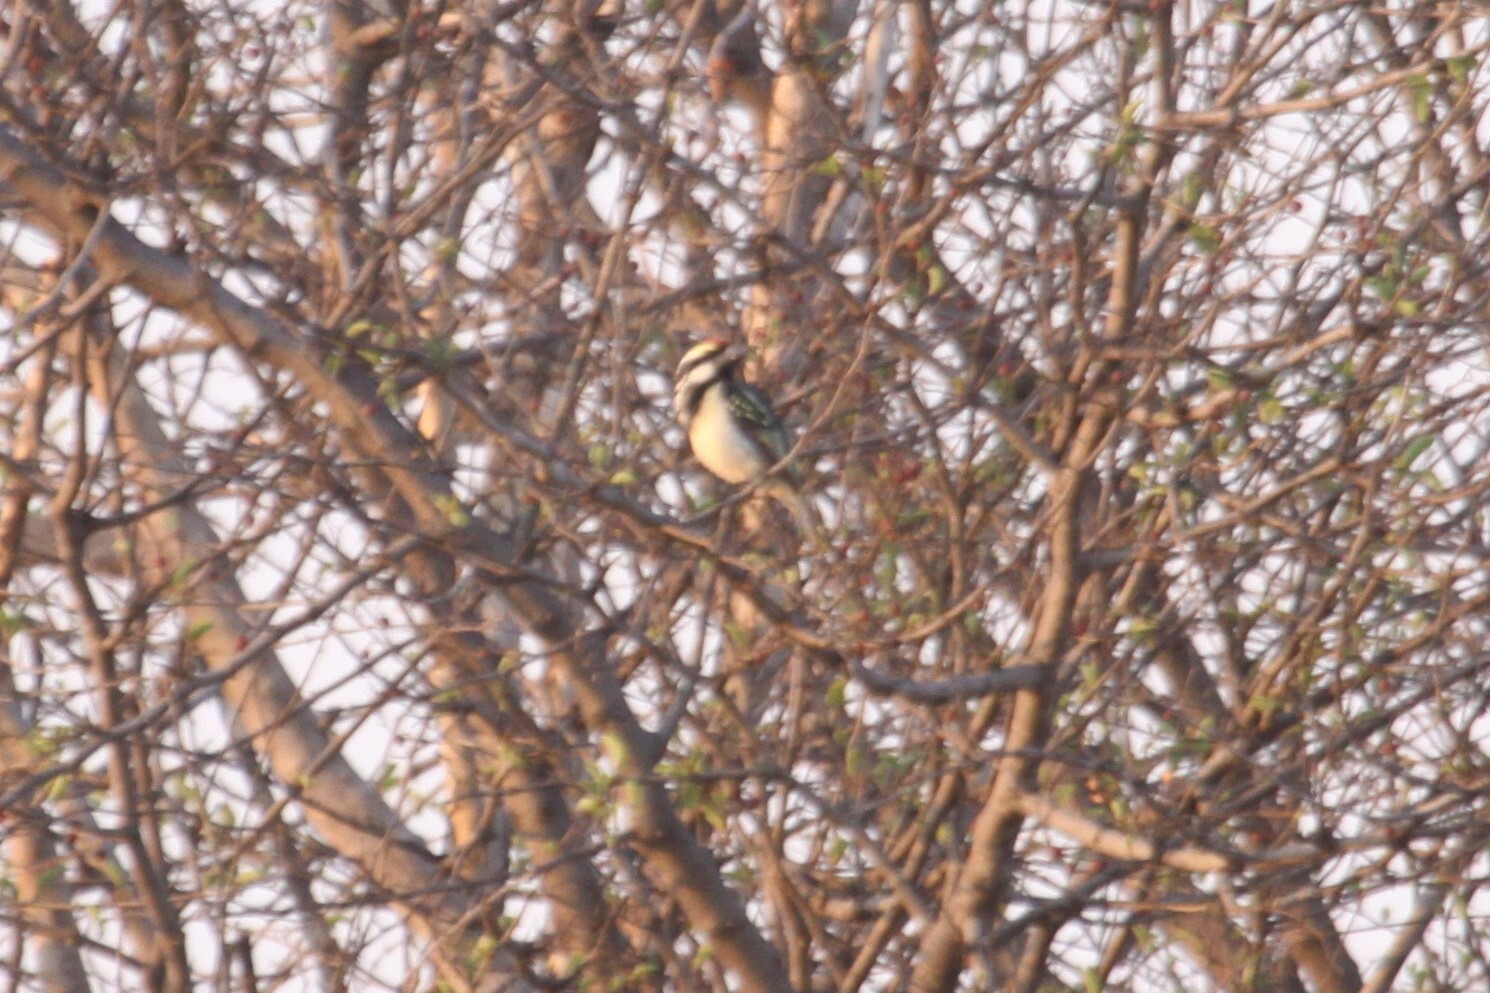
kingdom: Animalia
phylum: Chordata
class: Aves
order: Piciformes
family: Lybiidae
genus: Tricholaema
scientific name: Tricholaema leucomelas
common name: Acacia pied barbet
